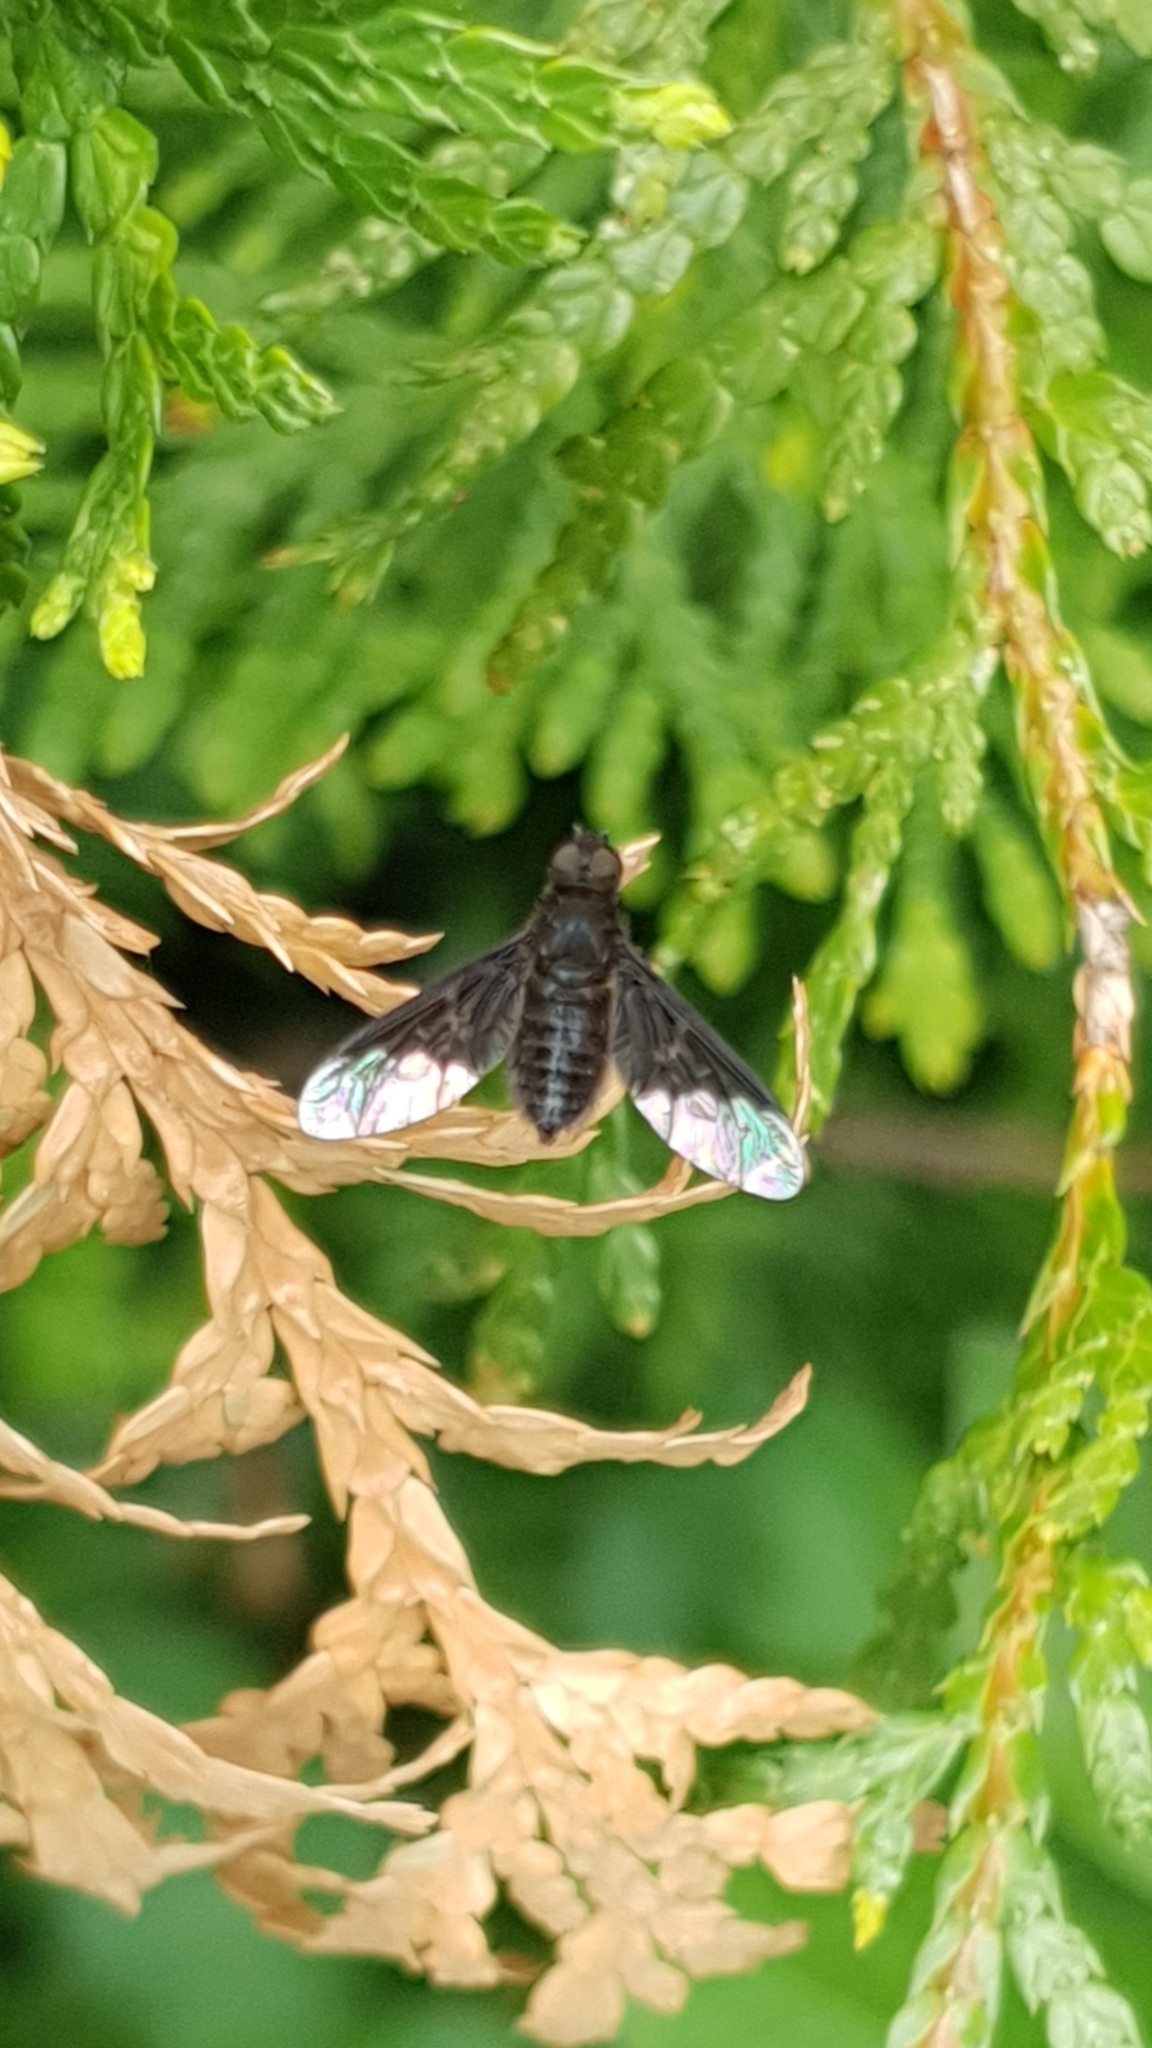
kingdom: Animalia
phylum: Arthropoda
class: Insecta
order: Diptera
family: Bombyliidae
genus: Hemipenthes
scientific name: Hemipenthes morio
